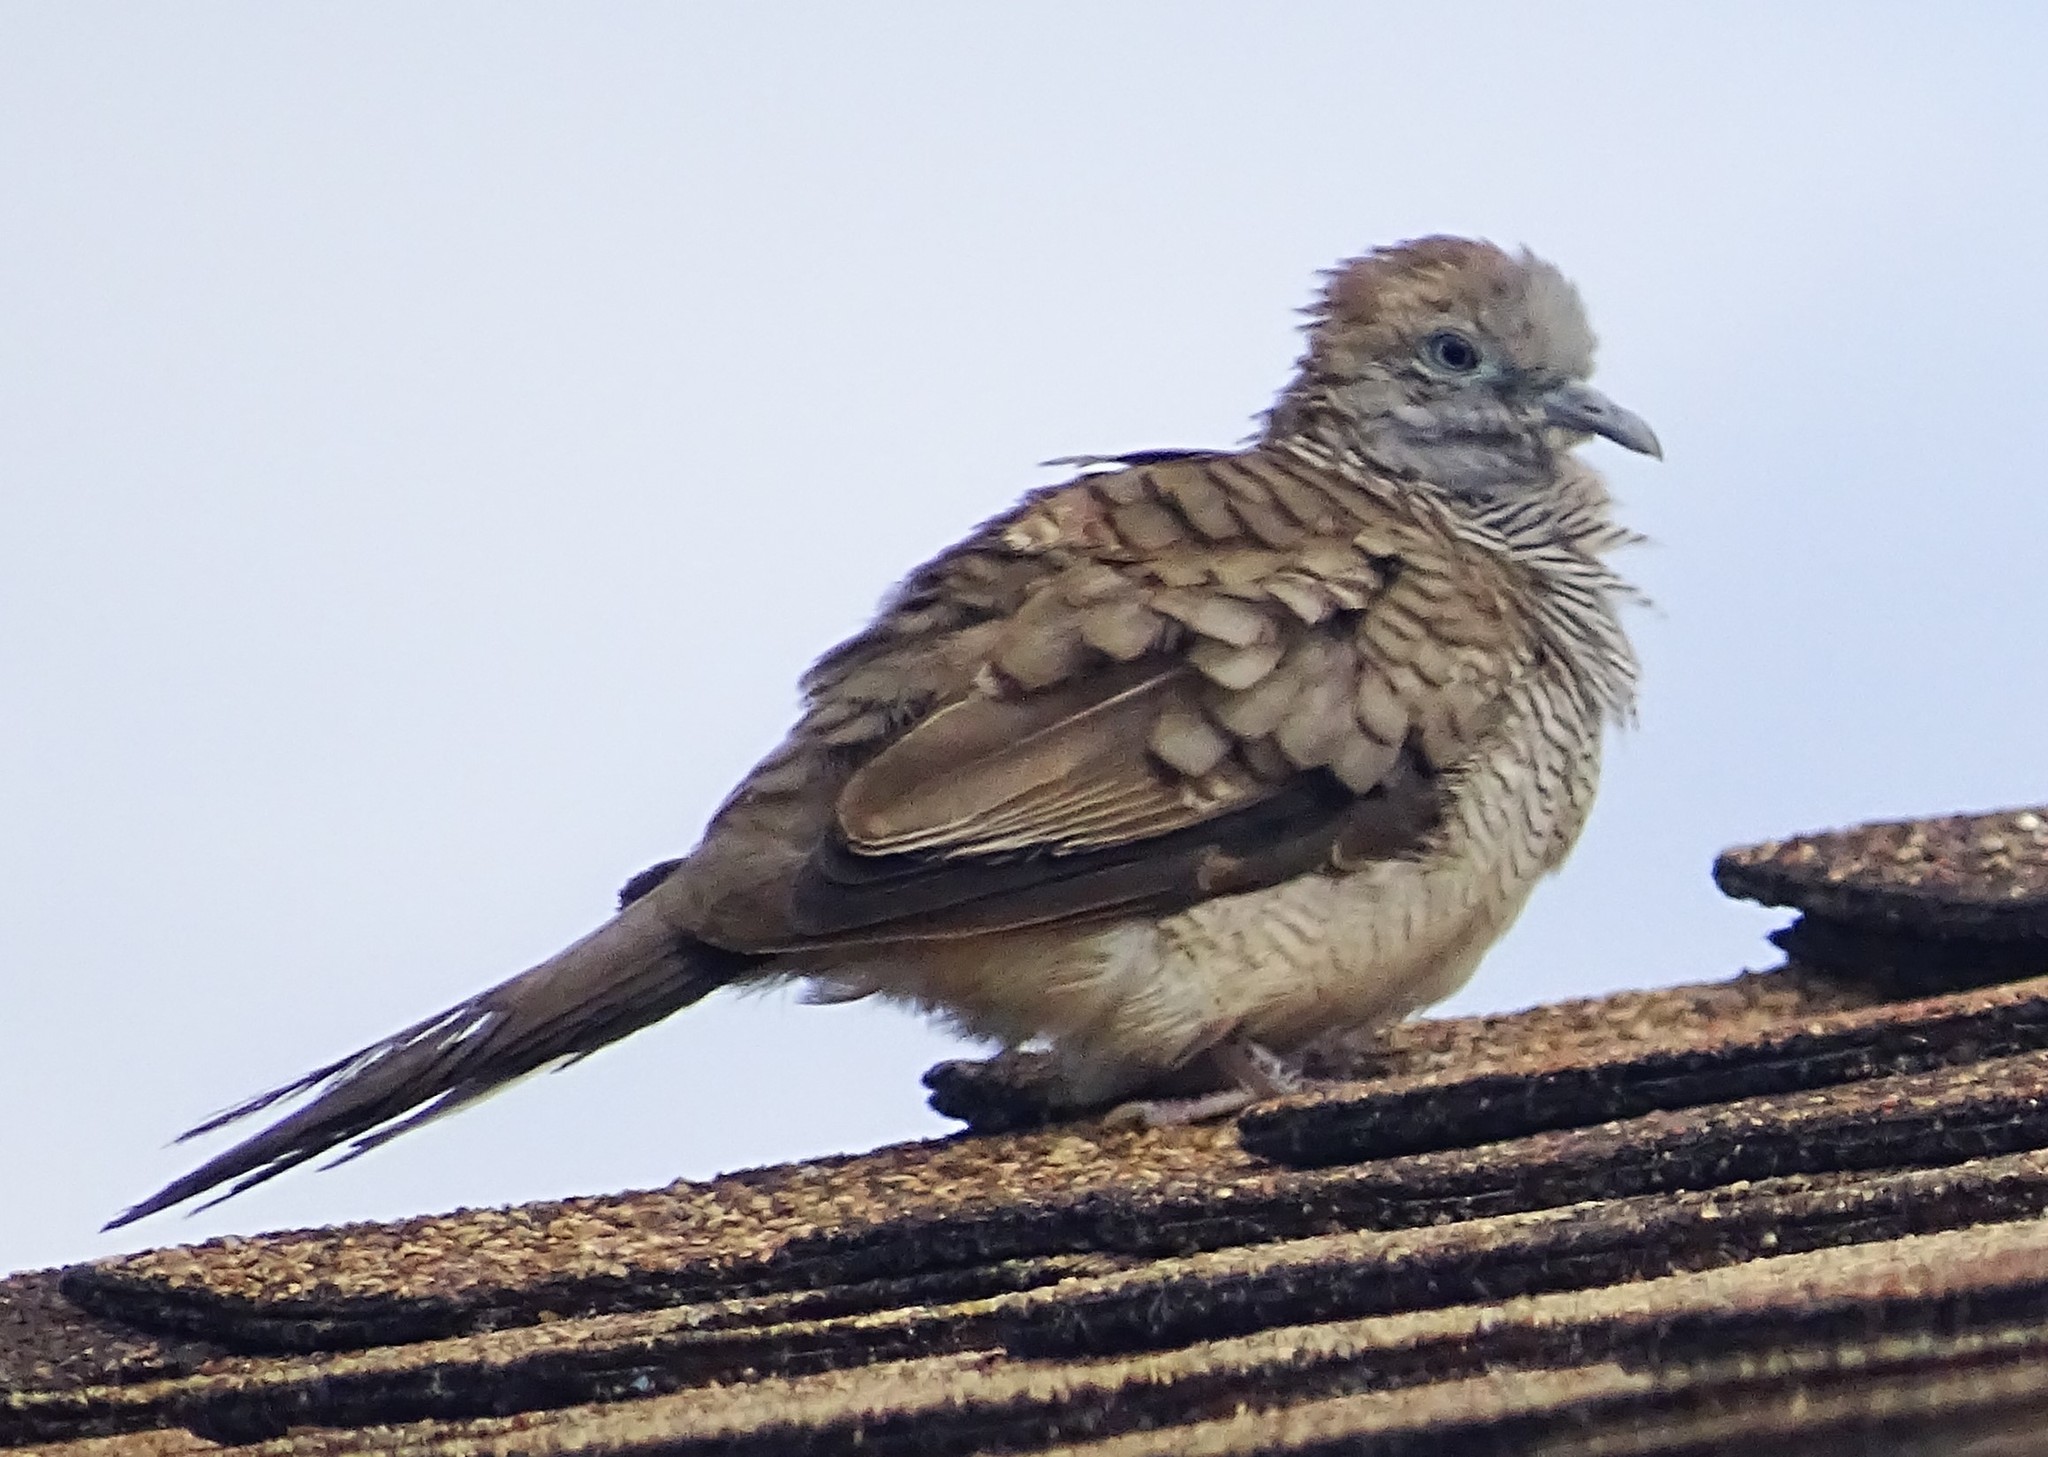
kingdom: Animalia
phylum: Chordata
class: Aves
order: Columbiformes
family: Columbidae
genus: Geopelia
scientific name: Geopelia striata
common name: Zebra dove
